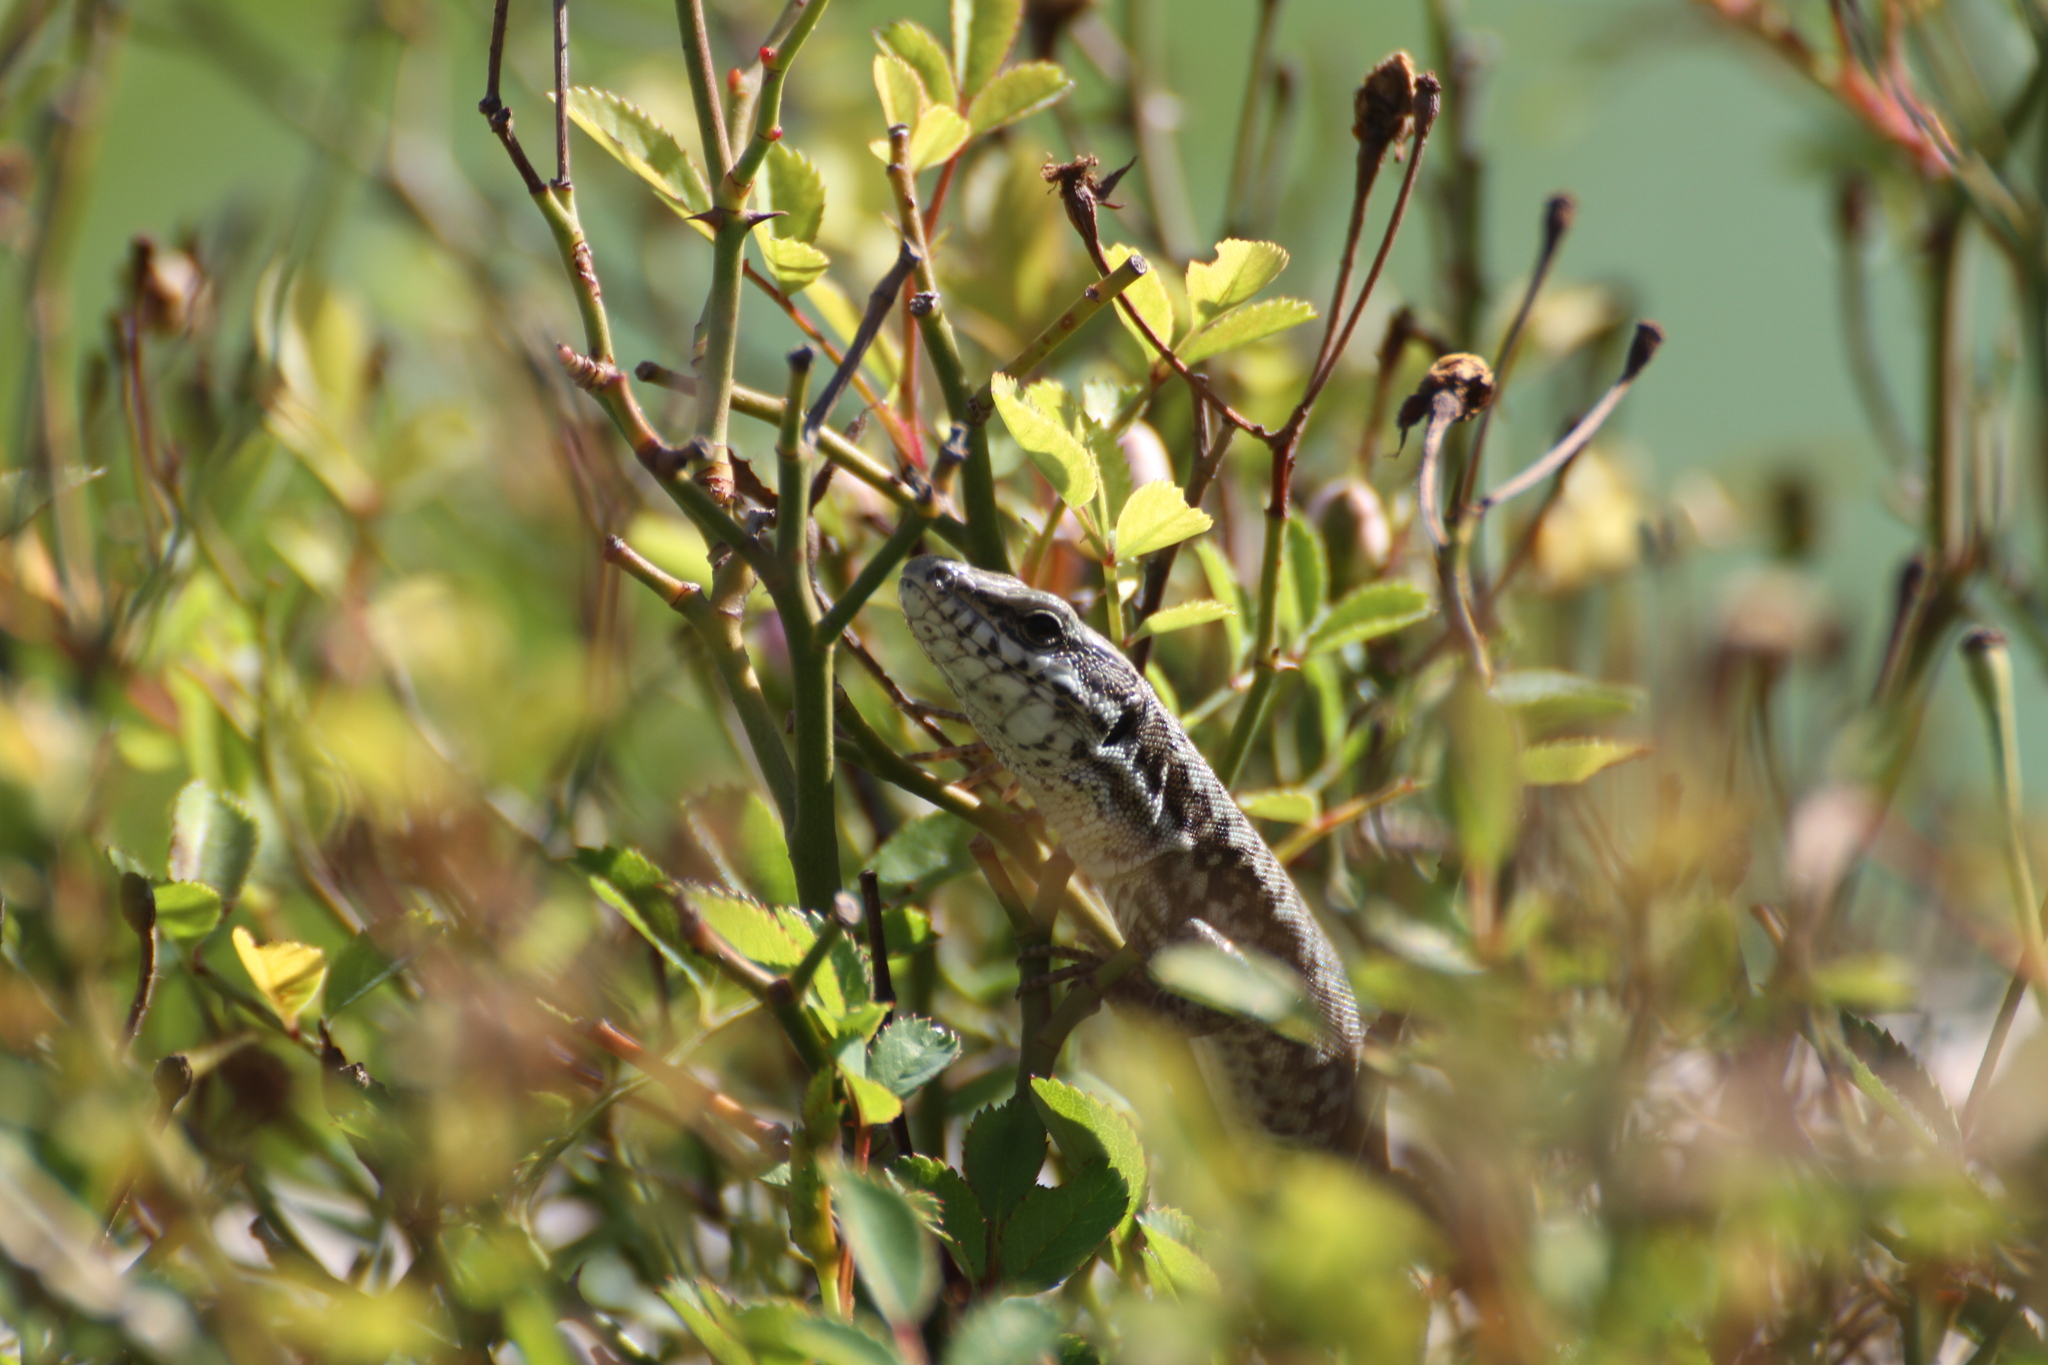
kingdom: Animalia
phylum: Chordata
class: Squamata
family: Lacertidae
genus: Podarcis
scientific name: Podarcis muralis
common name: Common wall lizard
